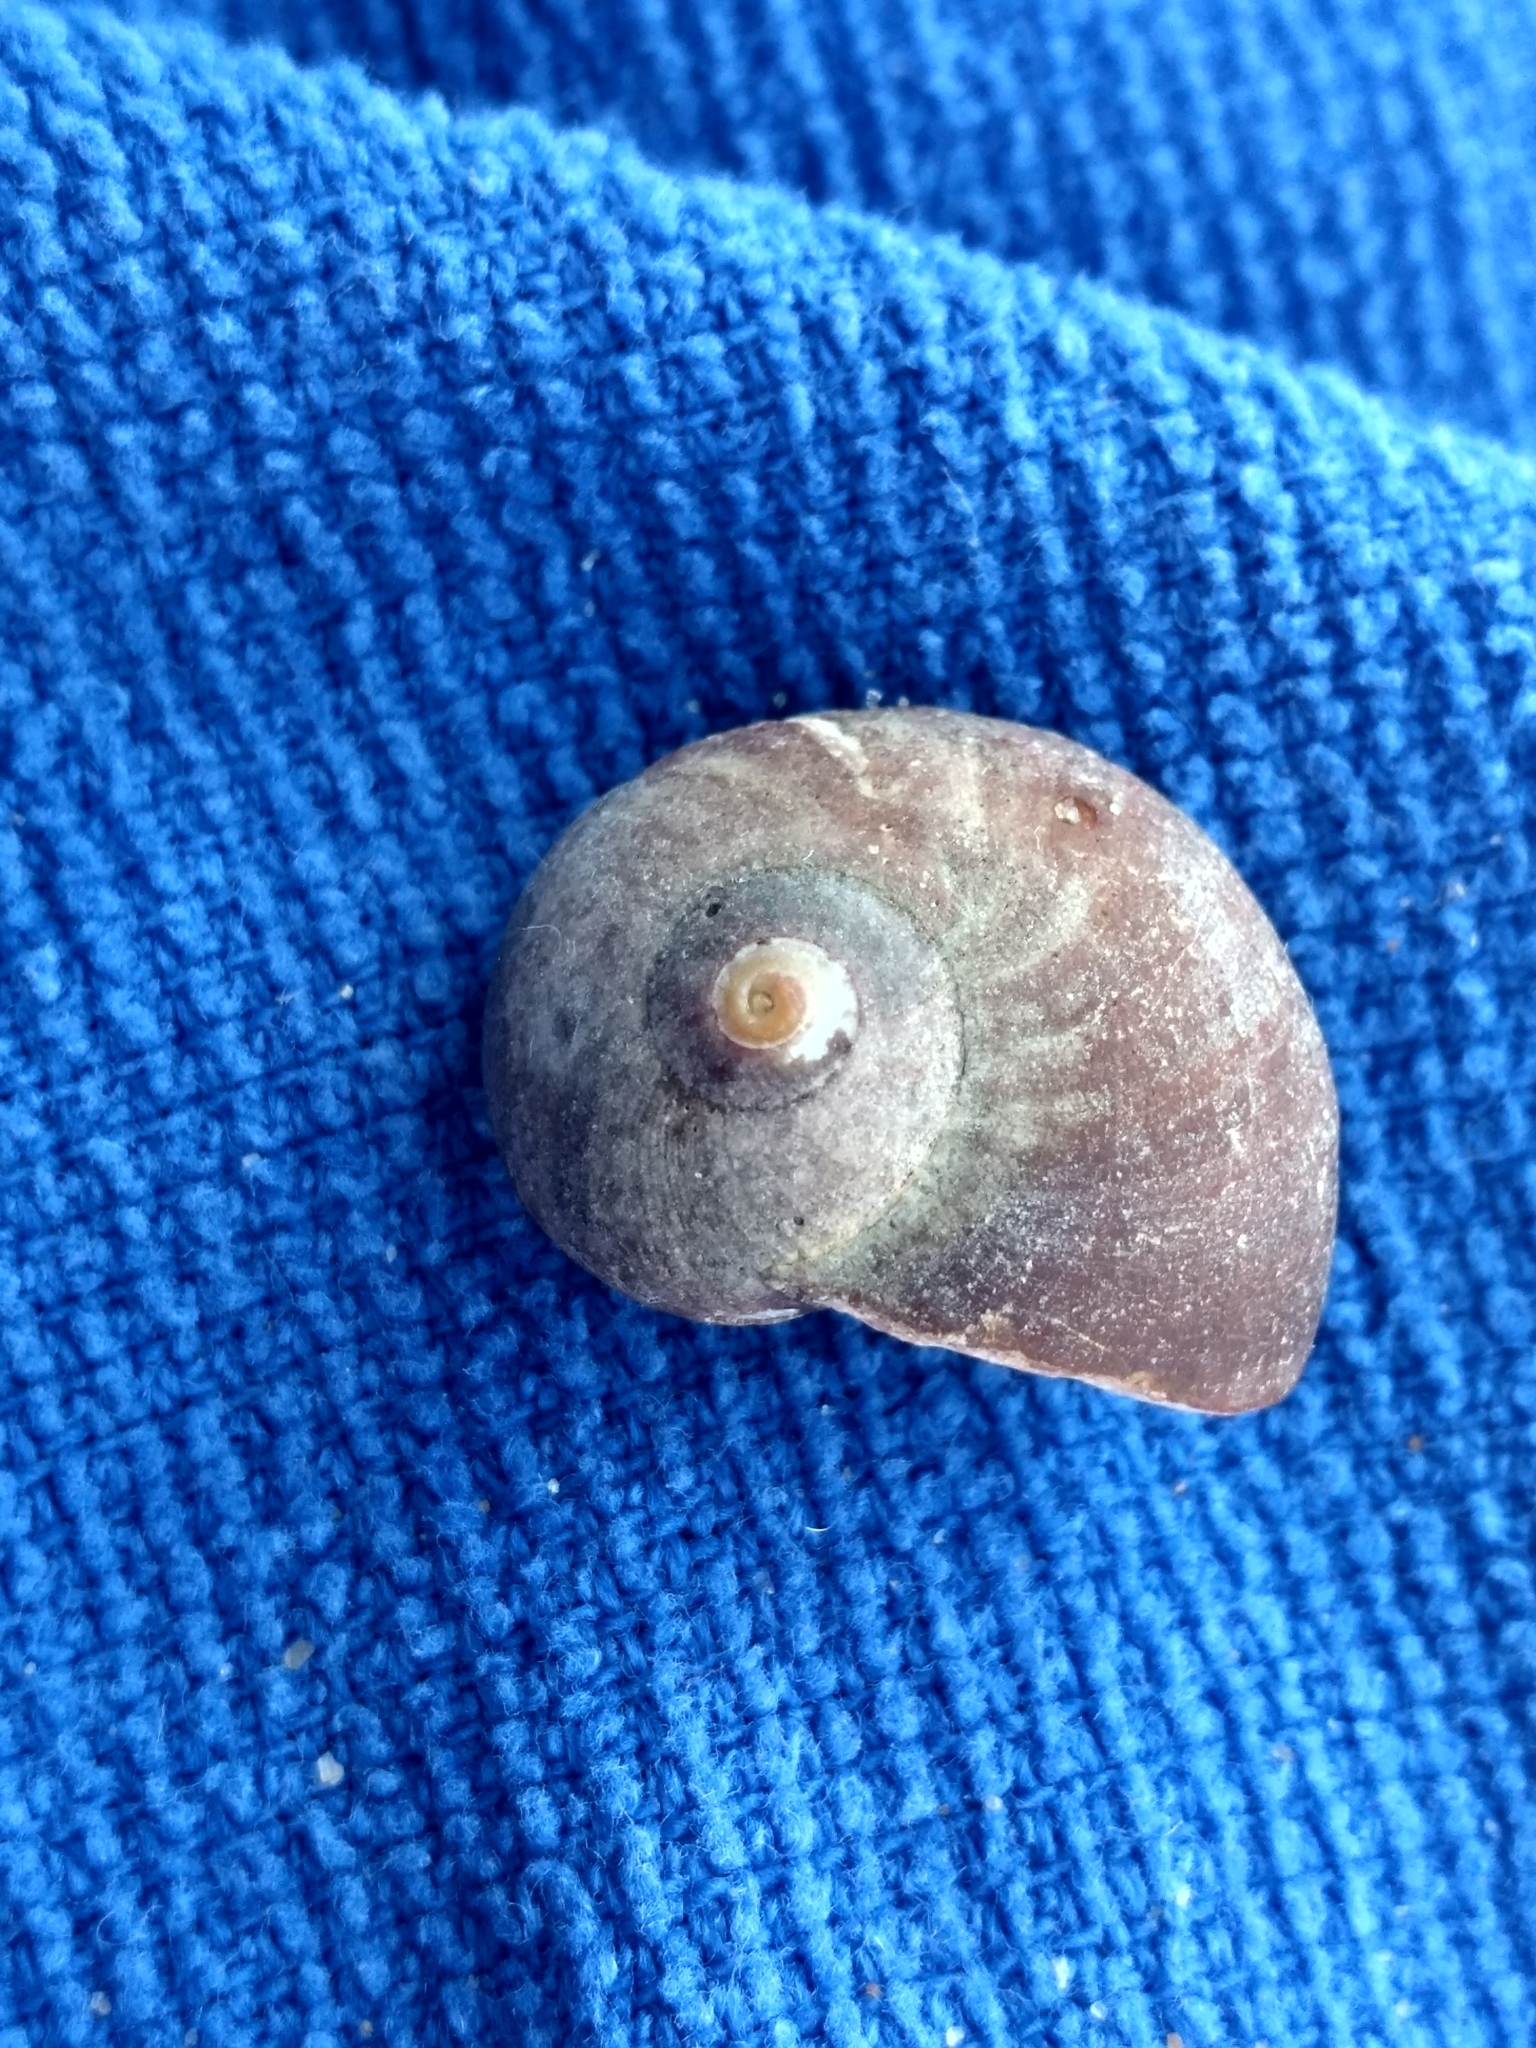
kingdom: Animalia
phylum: Mollusca
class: Gastropoda
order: Trochida
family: Tegulidae
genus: Norrisia
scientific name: Norrisia norrisii
